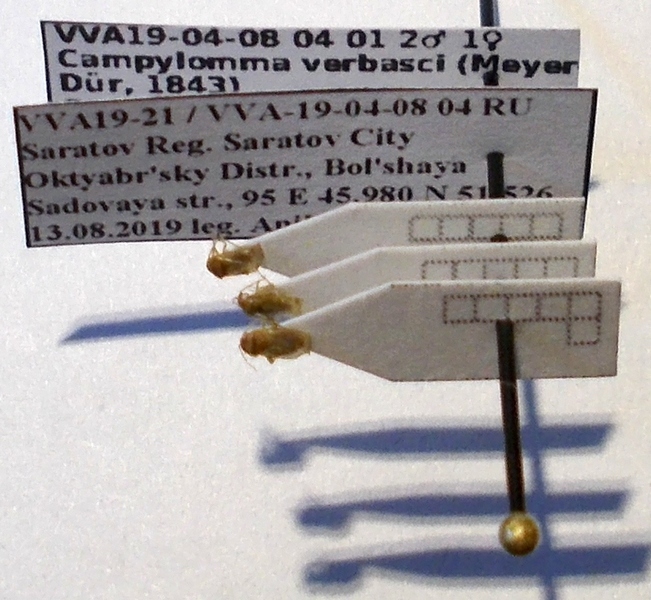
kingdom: Animalia
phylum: Arthropoda
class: Insecta
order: Hemiptera
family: Miridae
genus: Campylomma
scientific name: Campylomma verbasci
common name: Mullein bug
